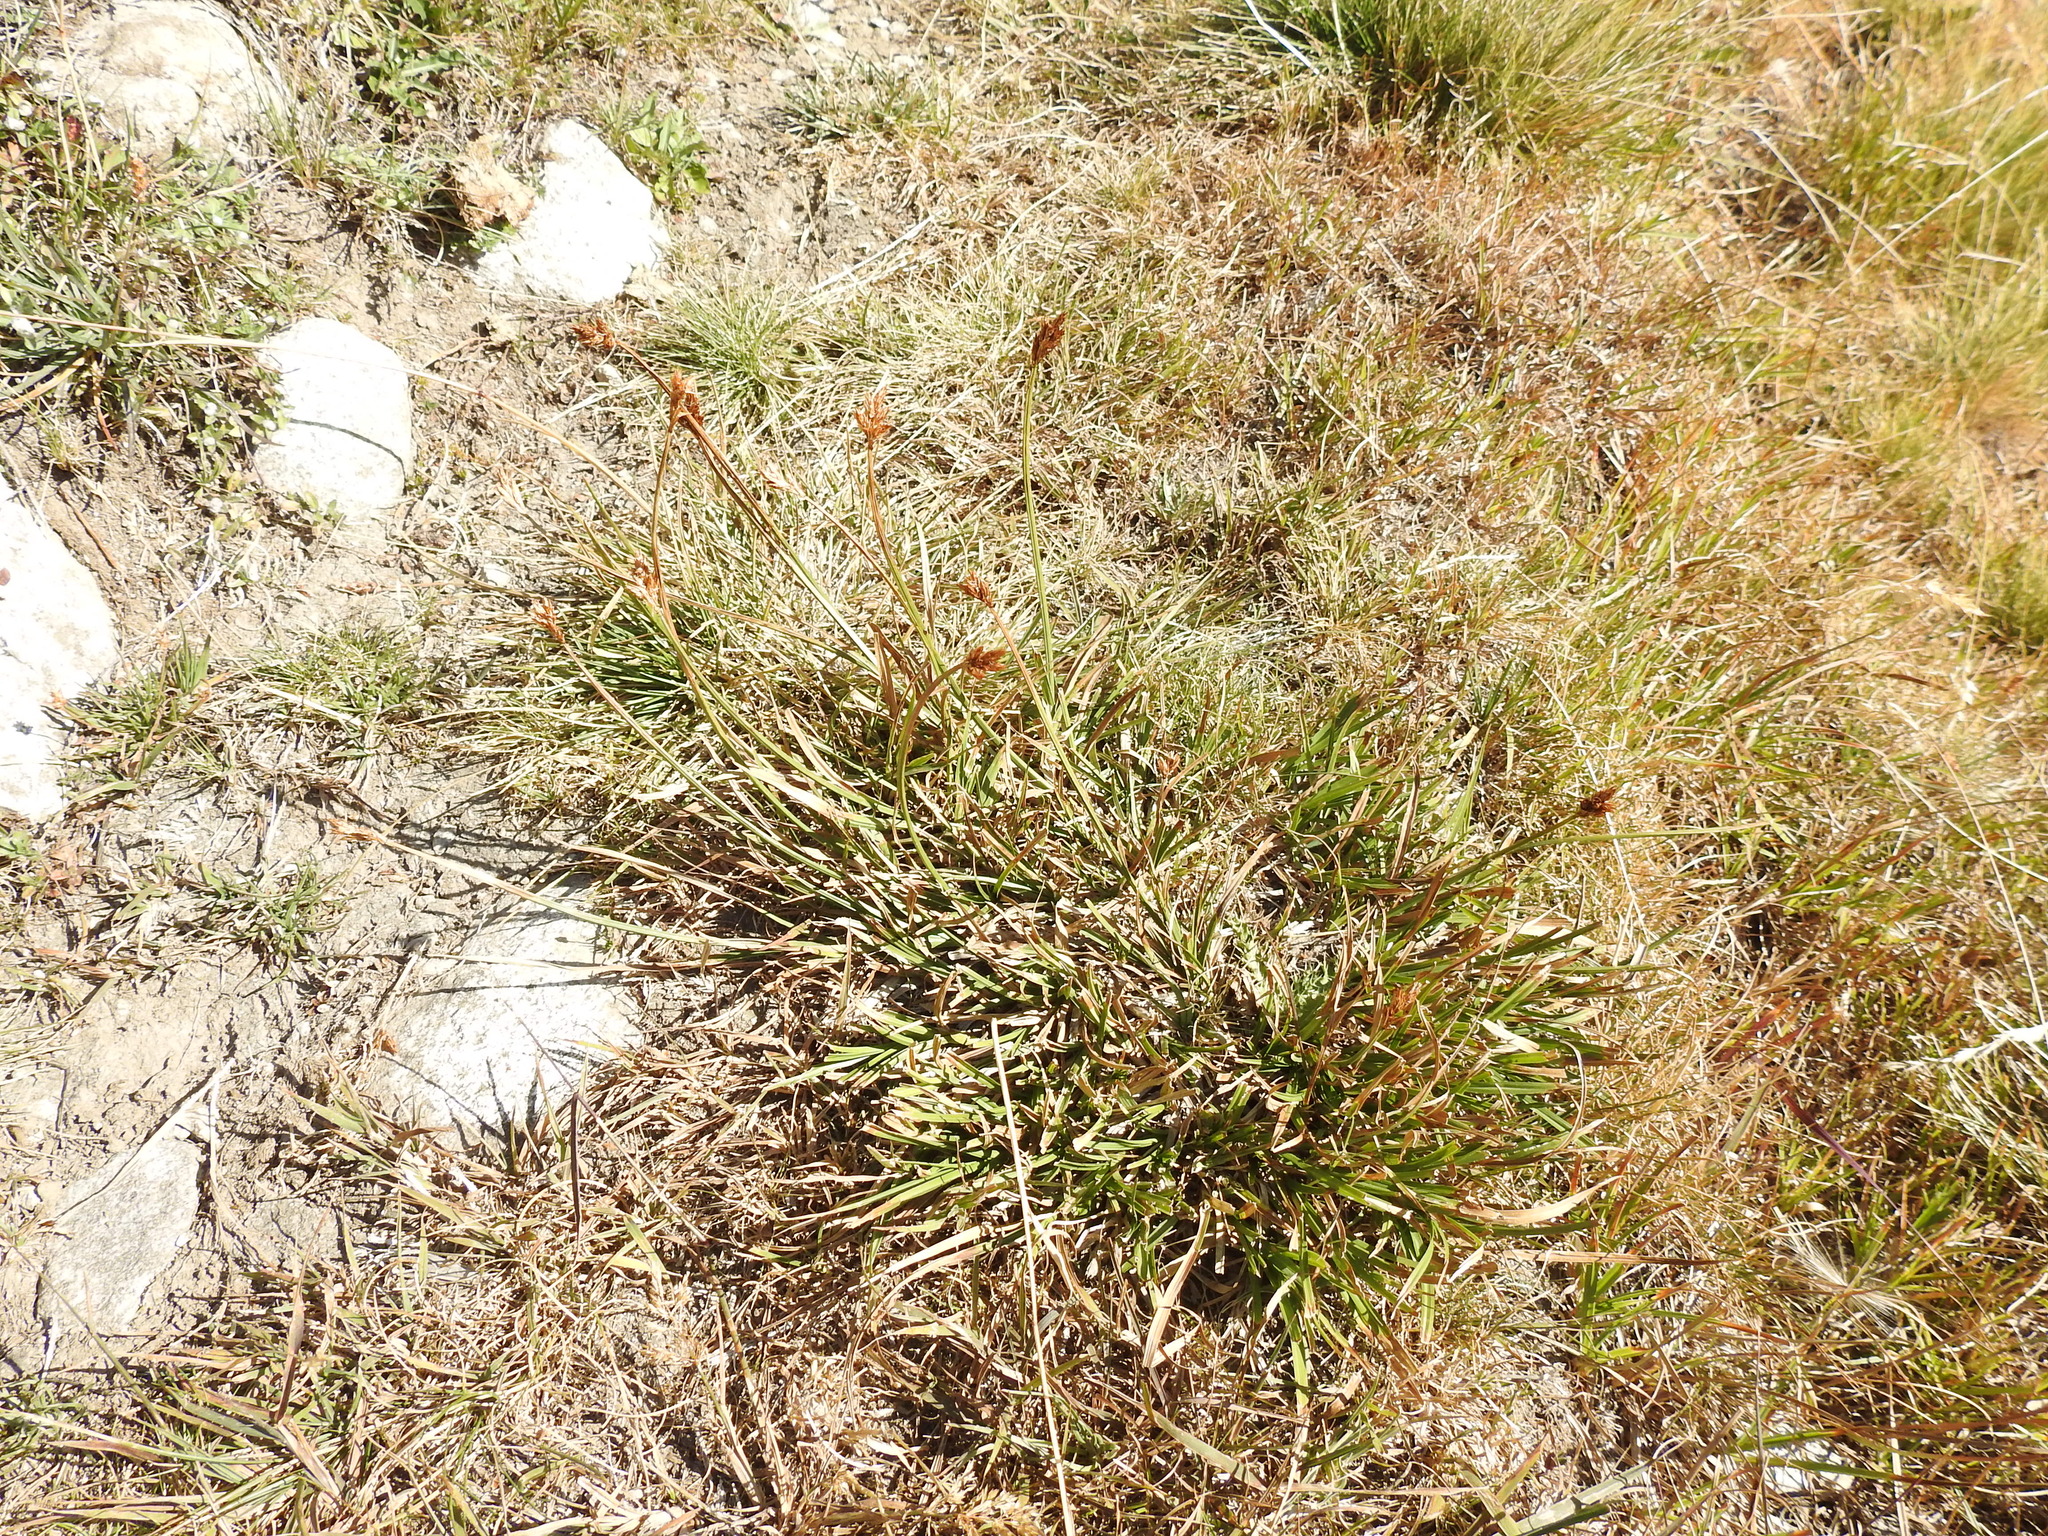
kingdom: Plantae
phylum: Tracheophyta
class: Liliopsida
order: Poales
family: Cyperaceae
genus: Carex
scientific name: Carex leporina
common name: Oval sedge
